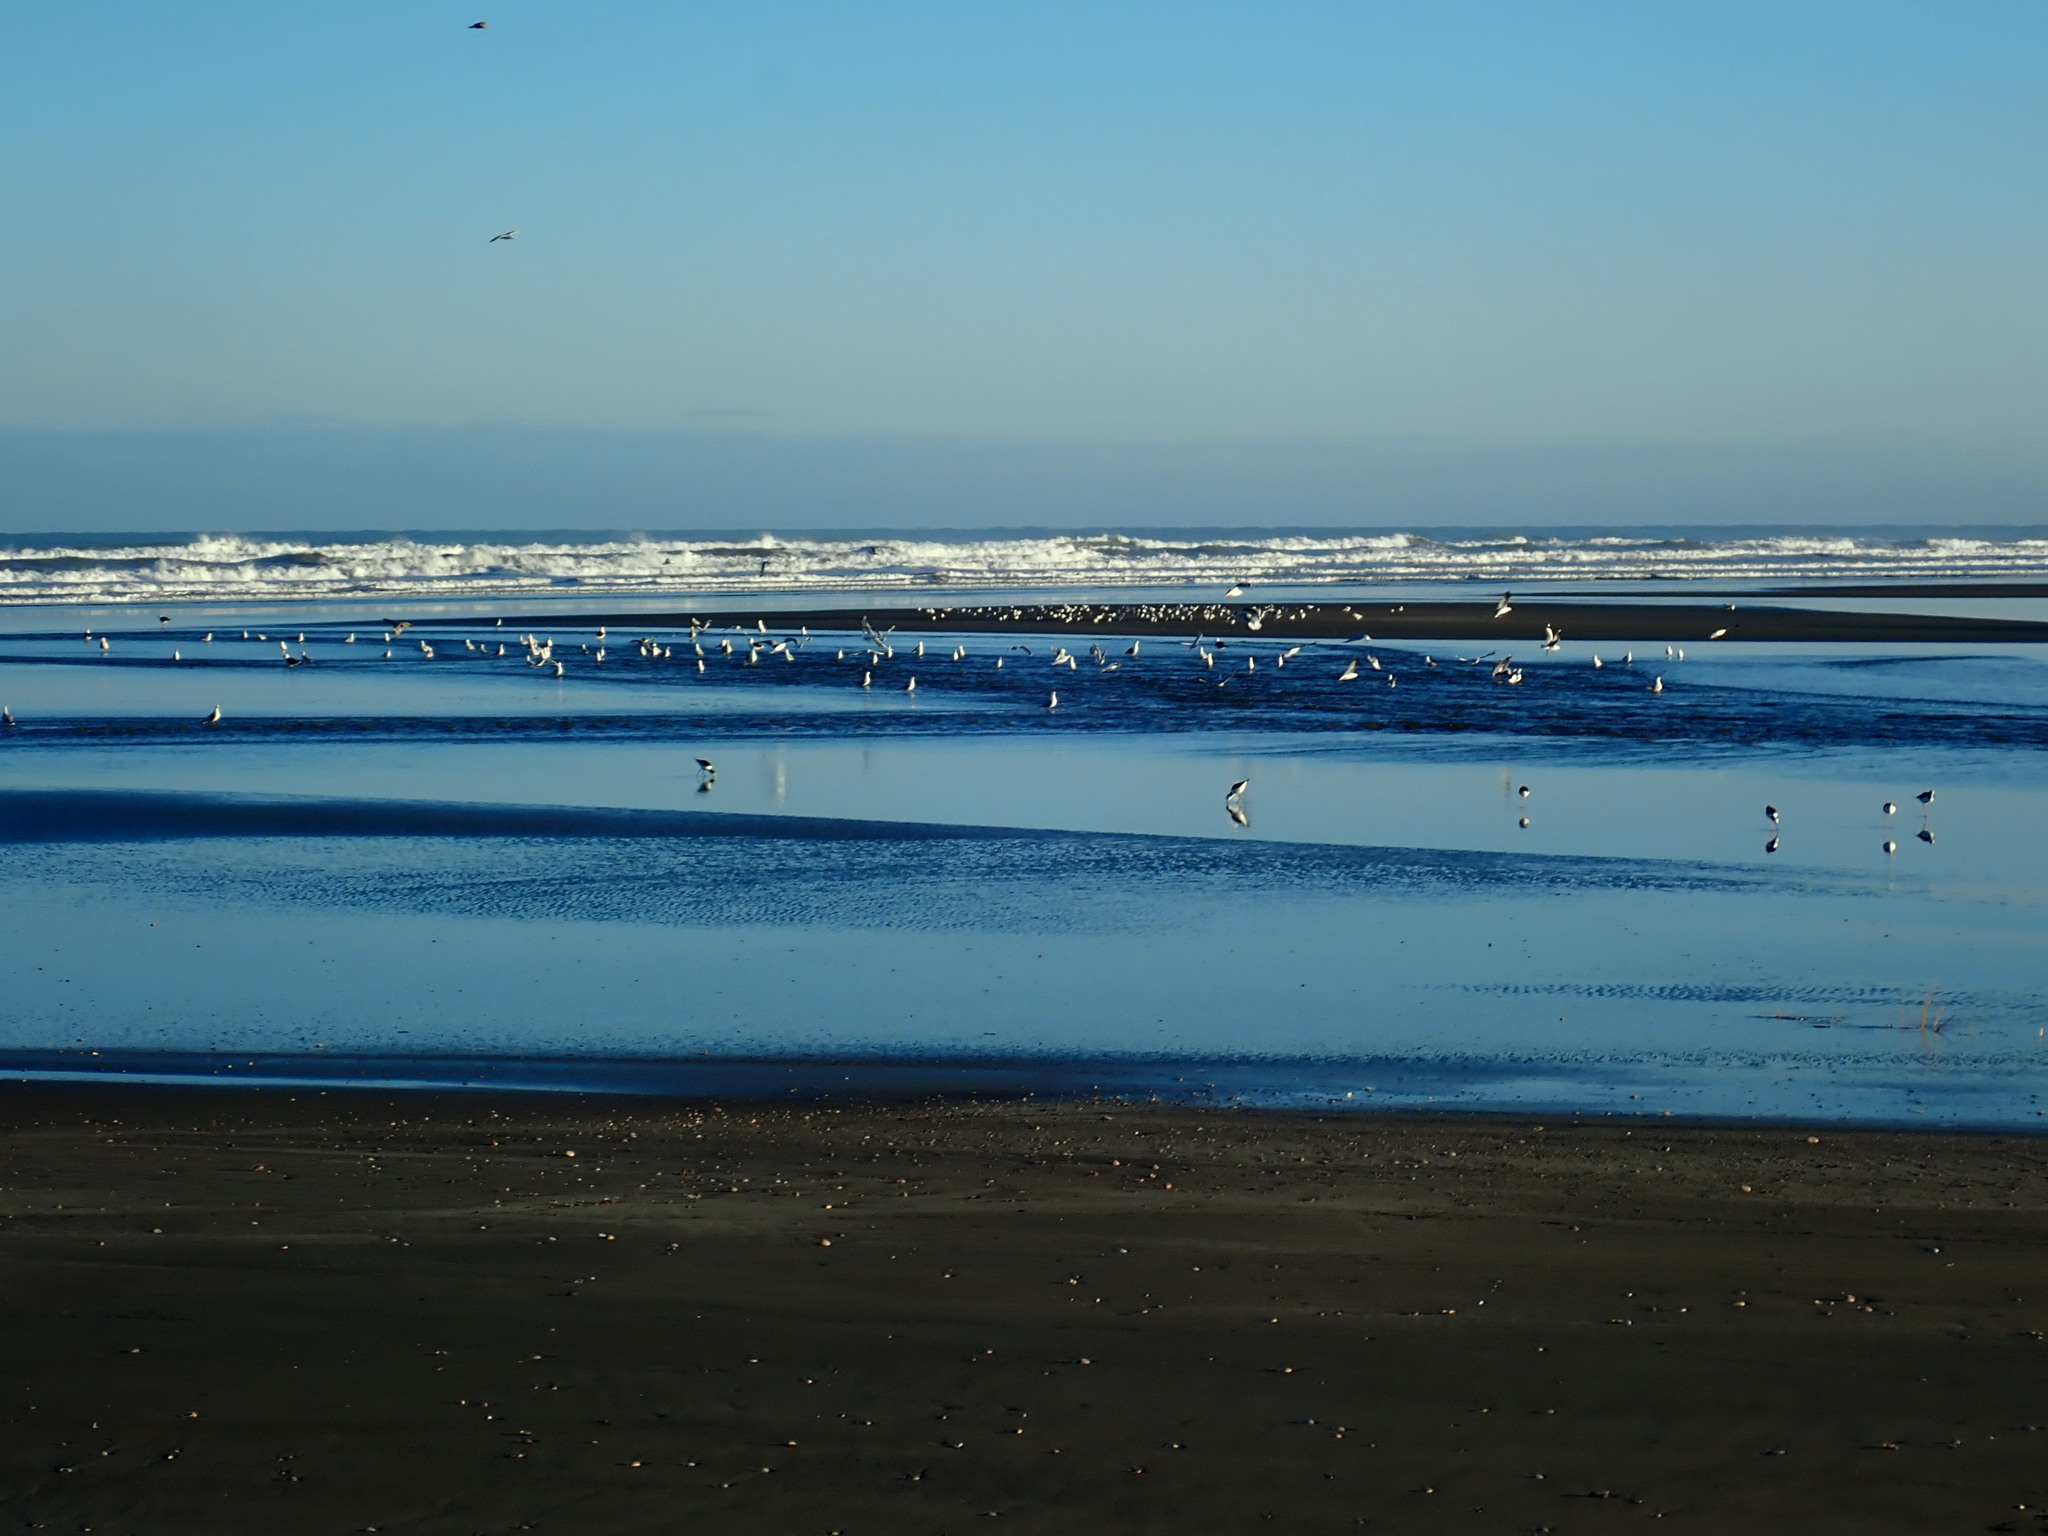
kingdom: Animalia
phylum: Chordata
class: Aves
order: Charadriiformes
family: Recurvirostridae
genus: Himantopus
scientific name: Himantopus leucocephalus
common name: White-headed stilt
